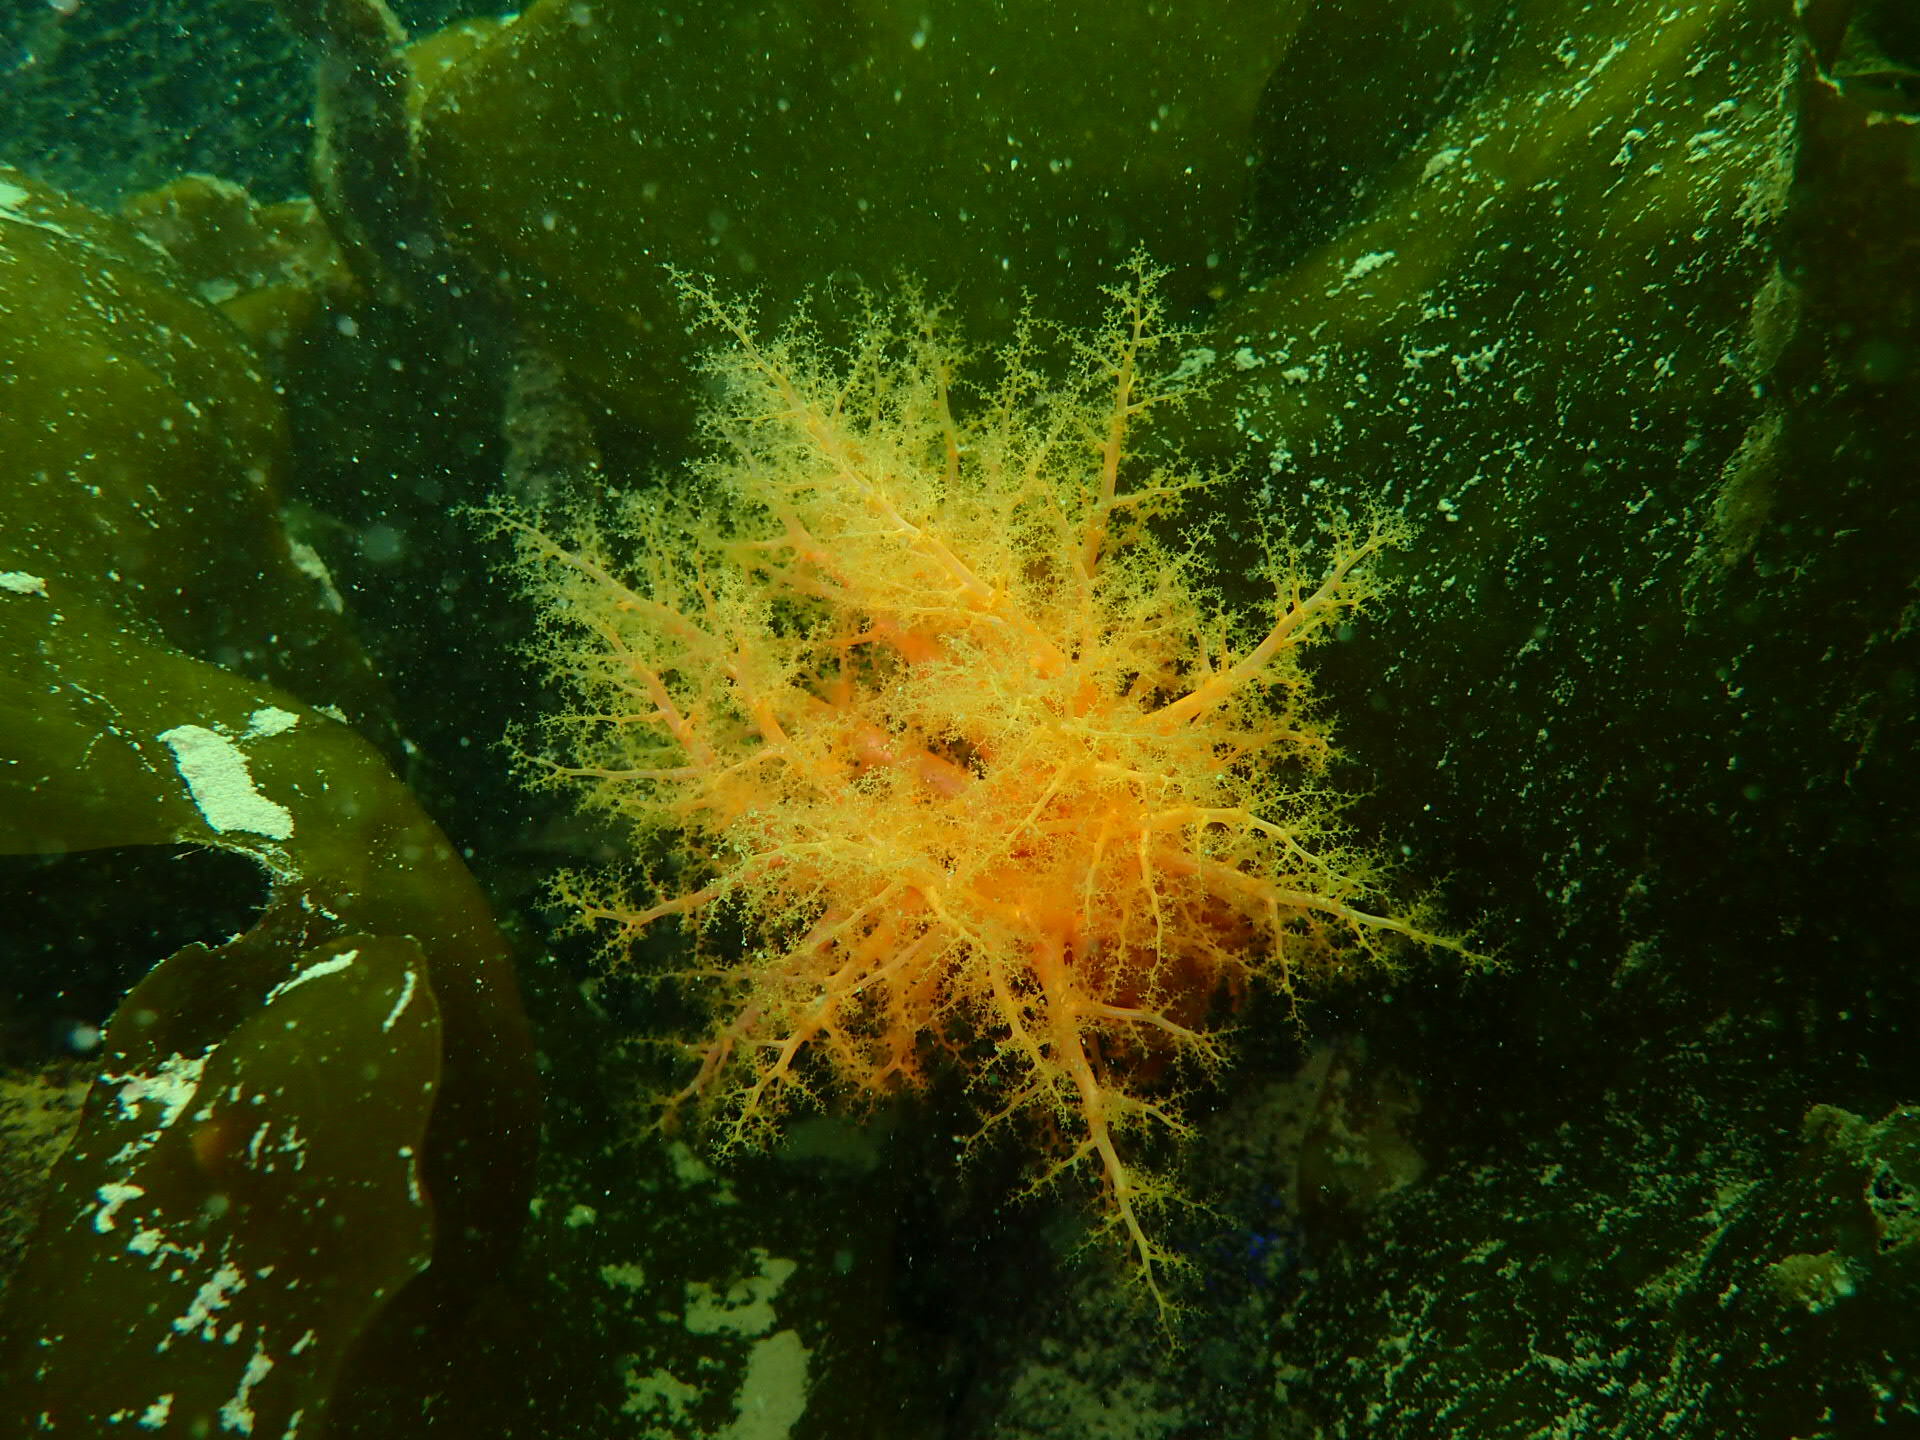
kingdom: Animalia
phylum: Echinodermata
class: Holothuroidea
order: Dendrochirotida
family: Cucumariidae
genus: Cucumaria
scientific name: Cucumaria miniata
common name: Orange sea cucumber
